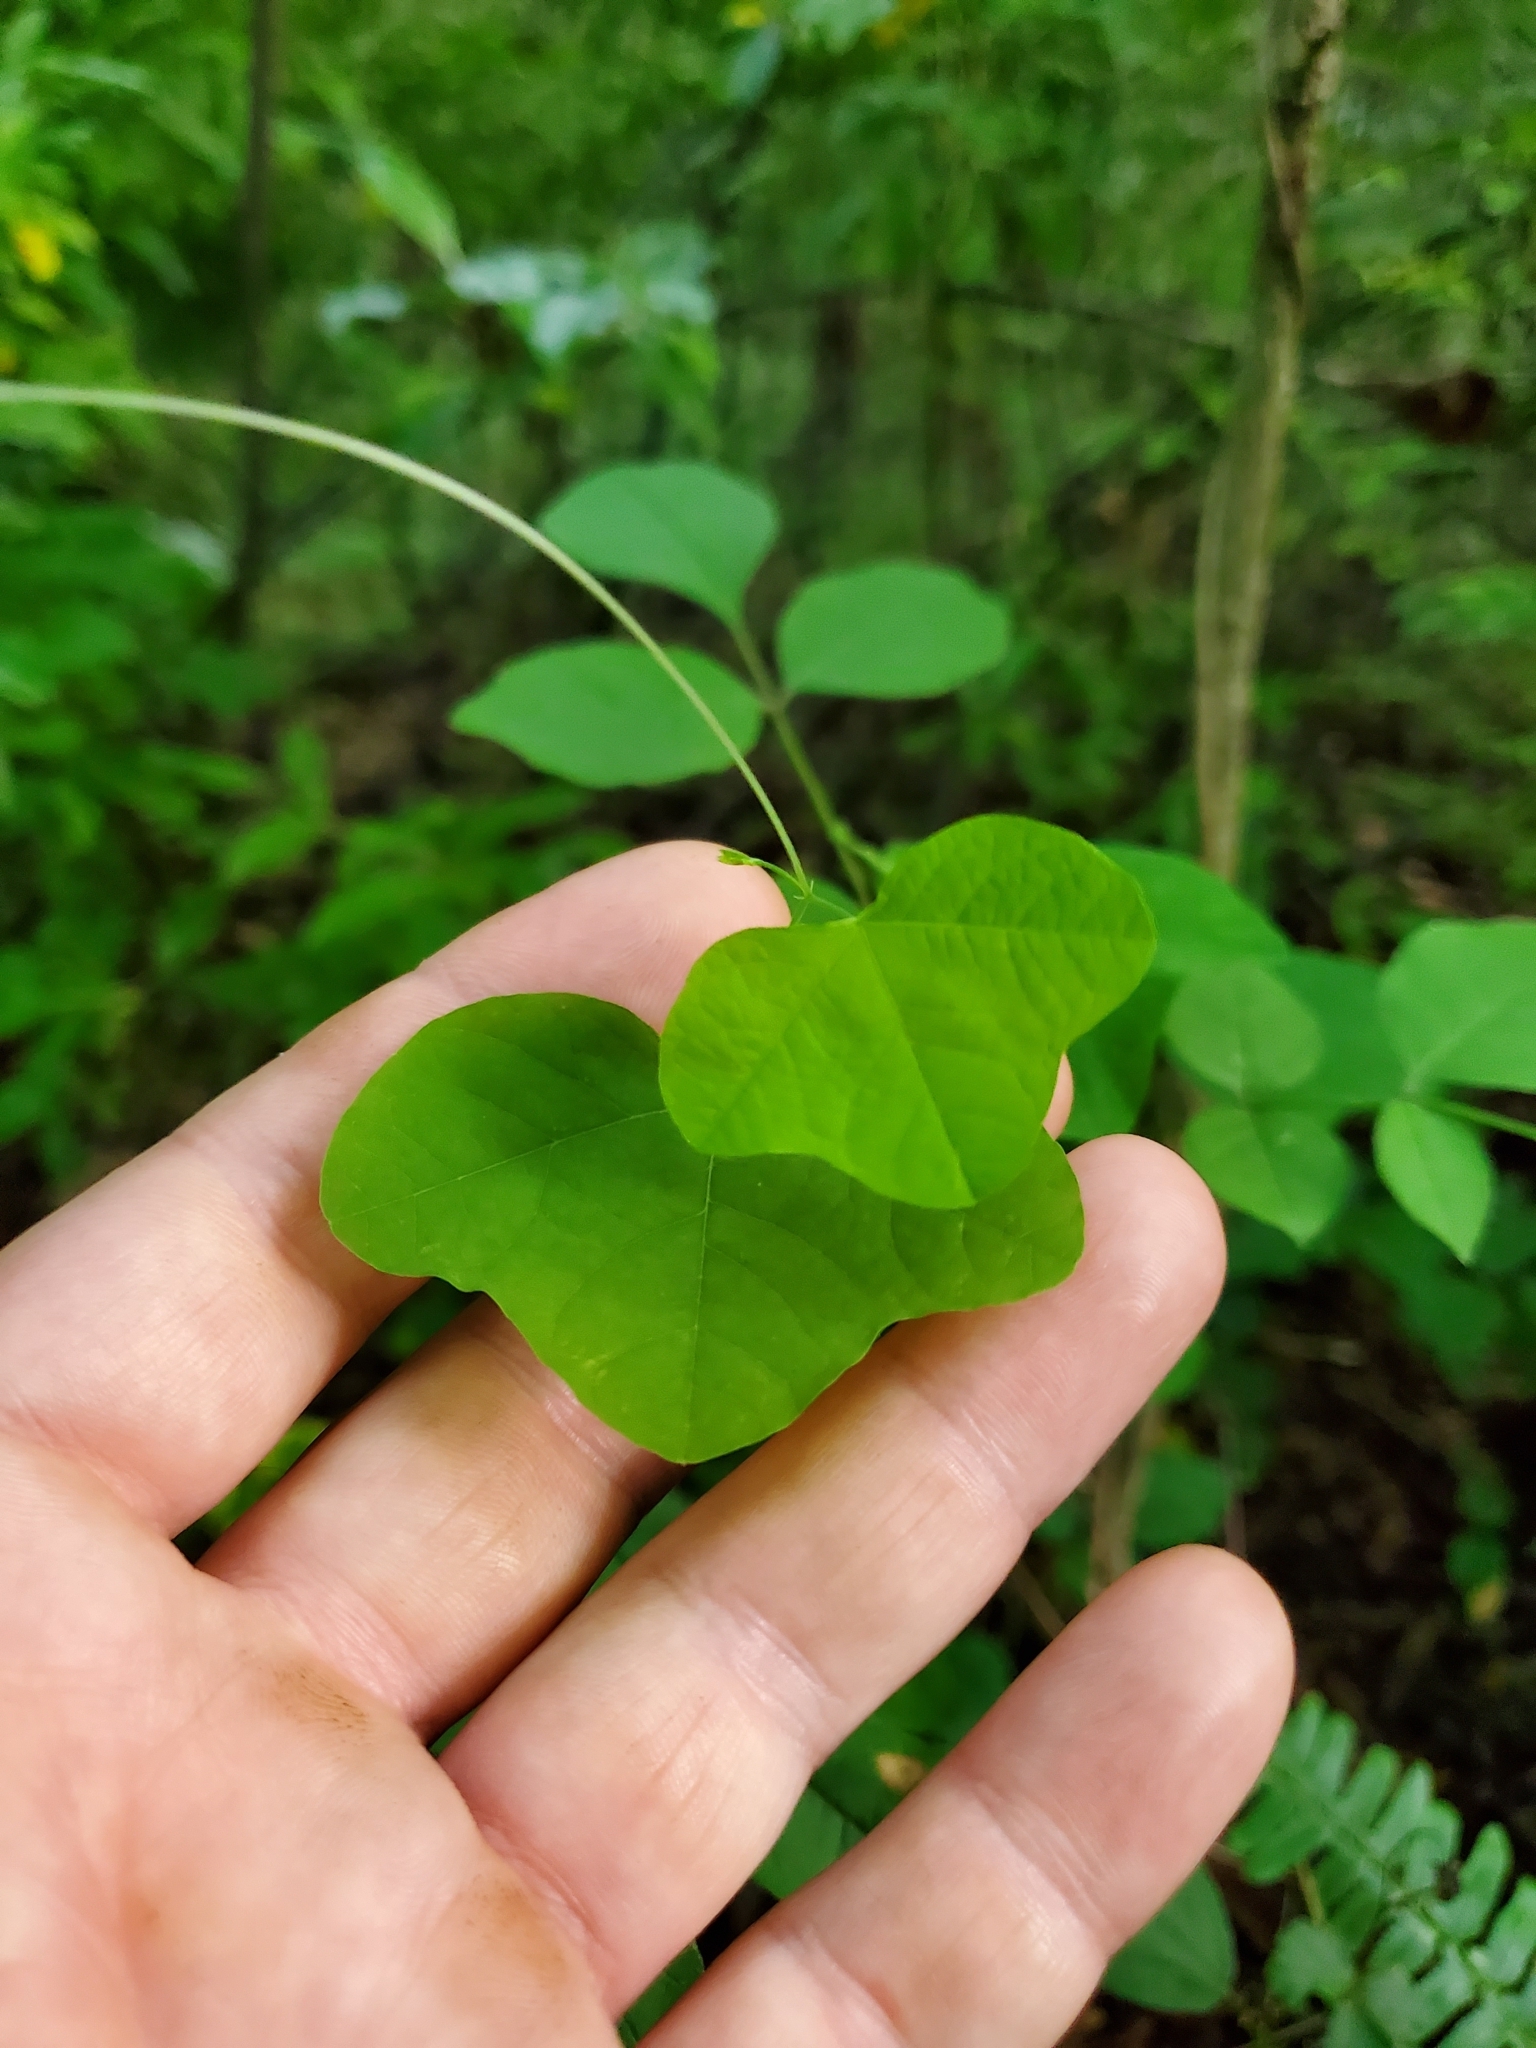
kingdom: Plantae
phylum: Tracheophyta
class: Magnoliopsida
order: Malpighiales
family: Passifloraceae
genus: Passiflora
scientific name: Passiflora lutea
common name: Yellow passionflower
